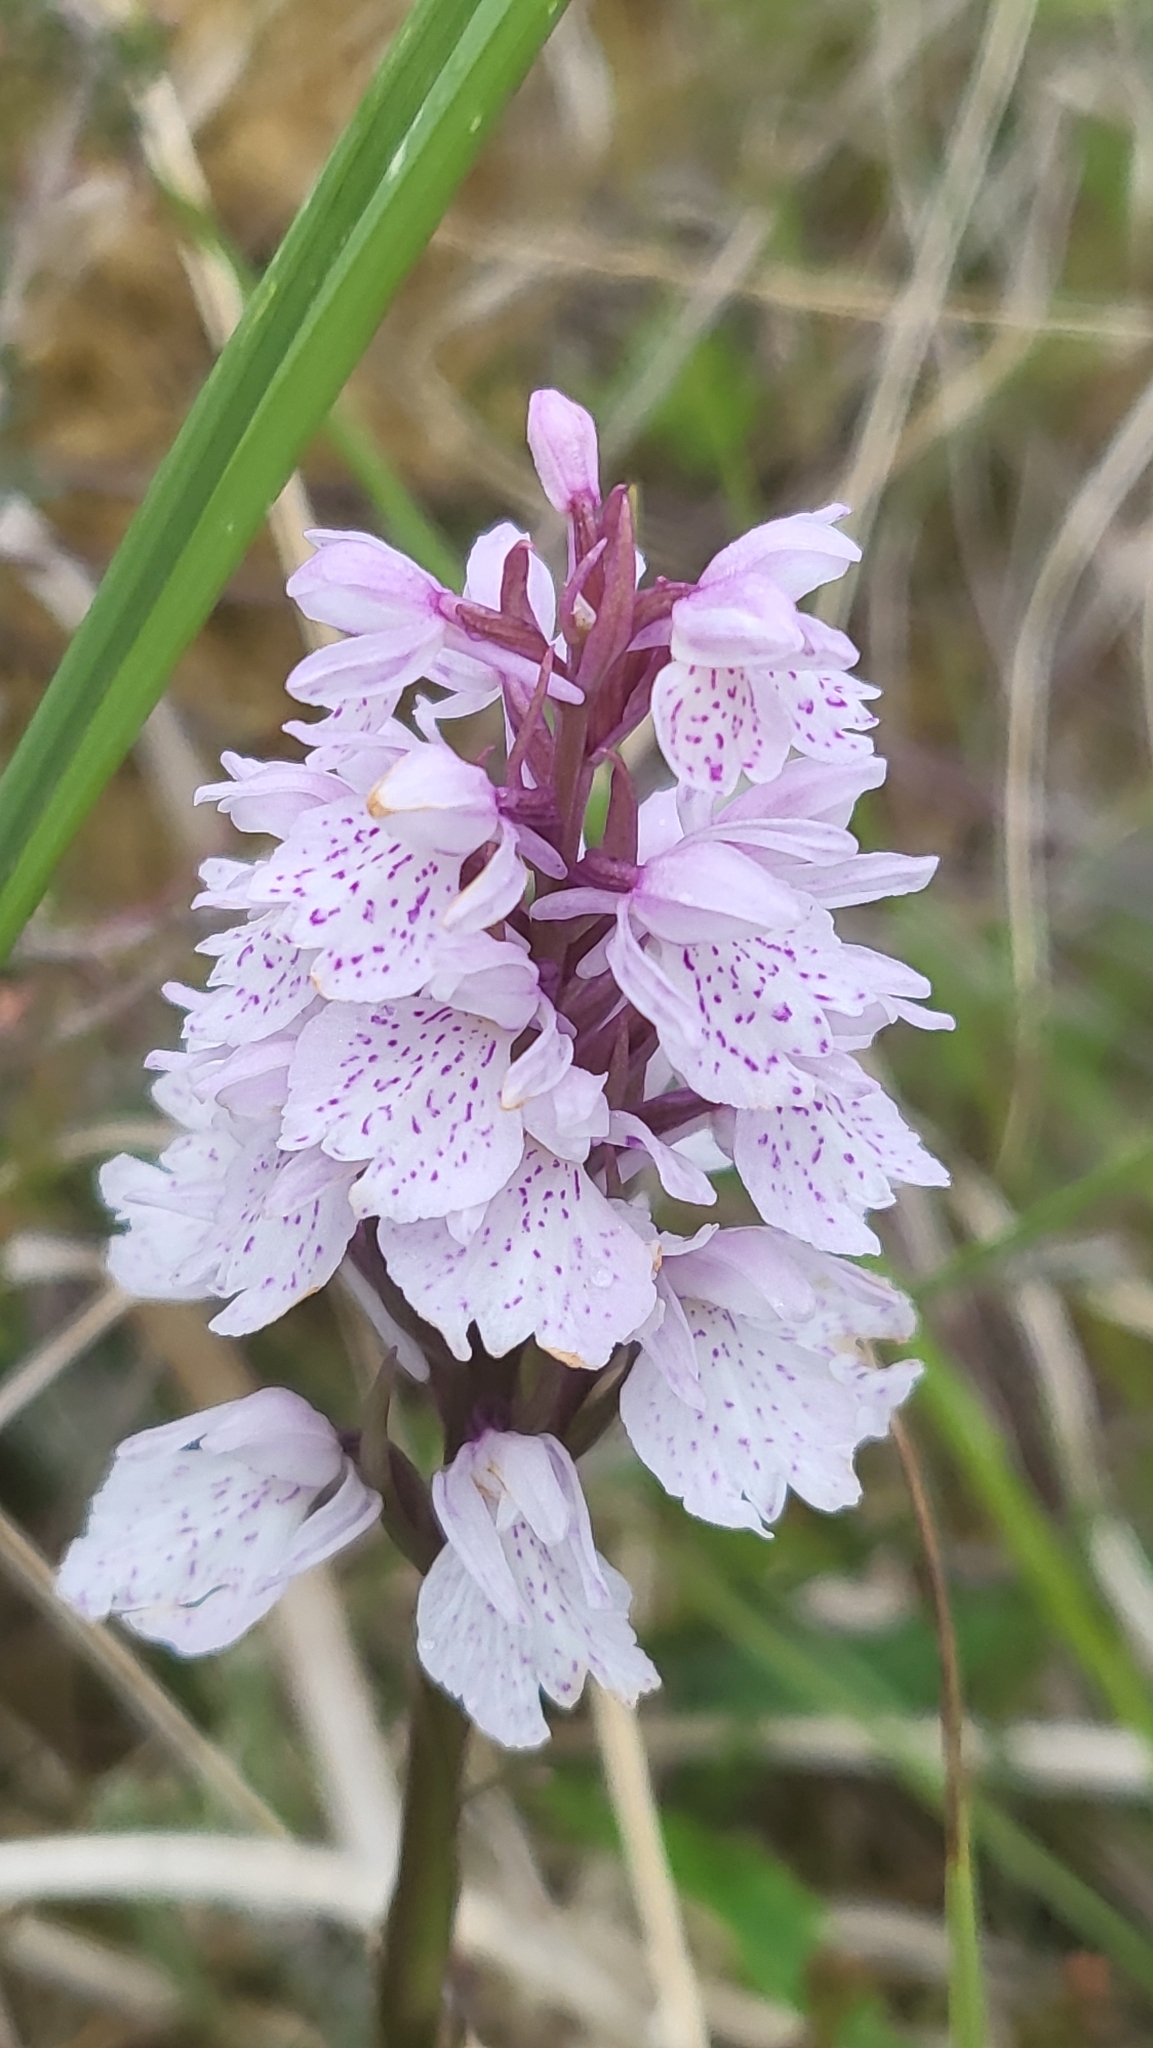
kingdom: Plantae
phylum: Tracheophyta
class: Liliopsida
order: Asparagales
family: Orchidaceae
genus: Dactylorhiza
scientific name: Dactylorhiza maculata
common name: Heath spotted-orchid
